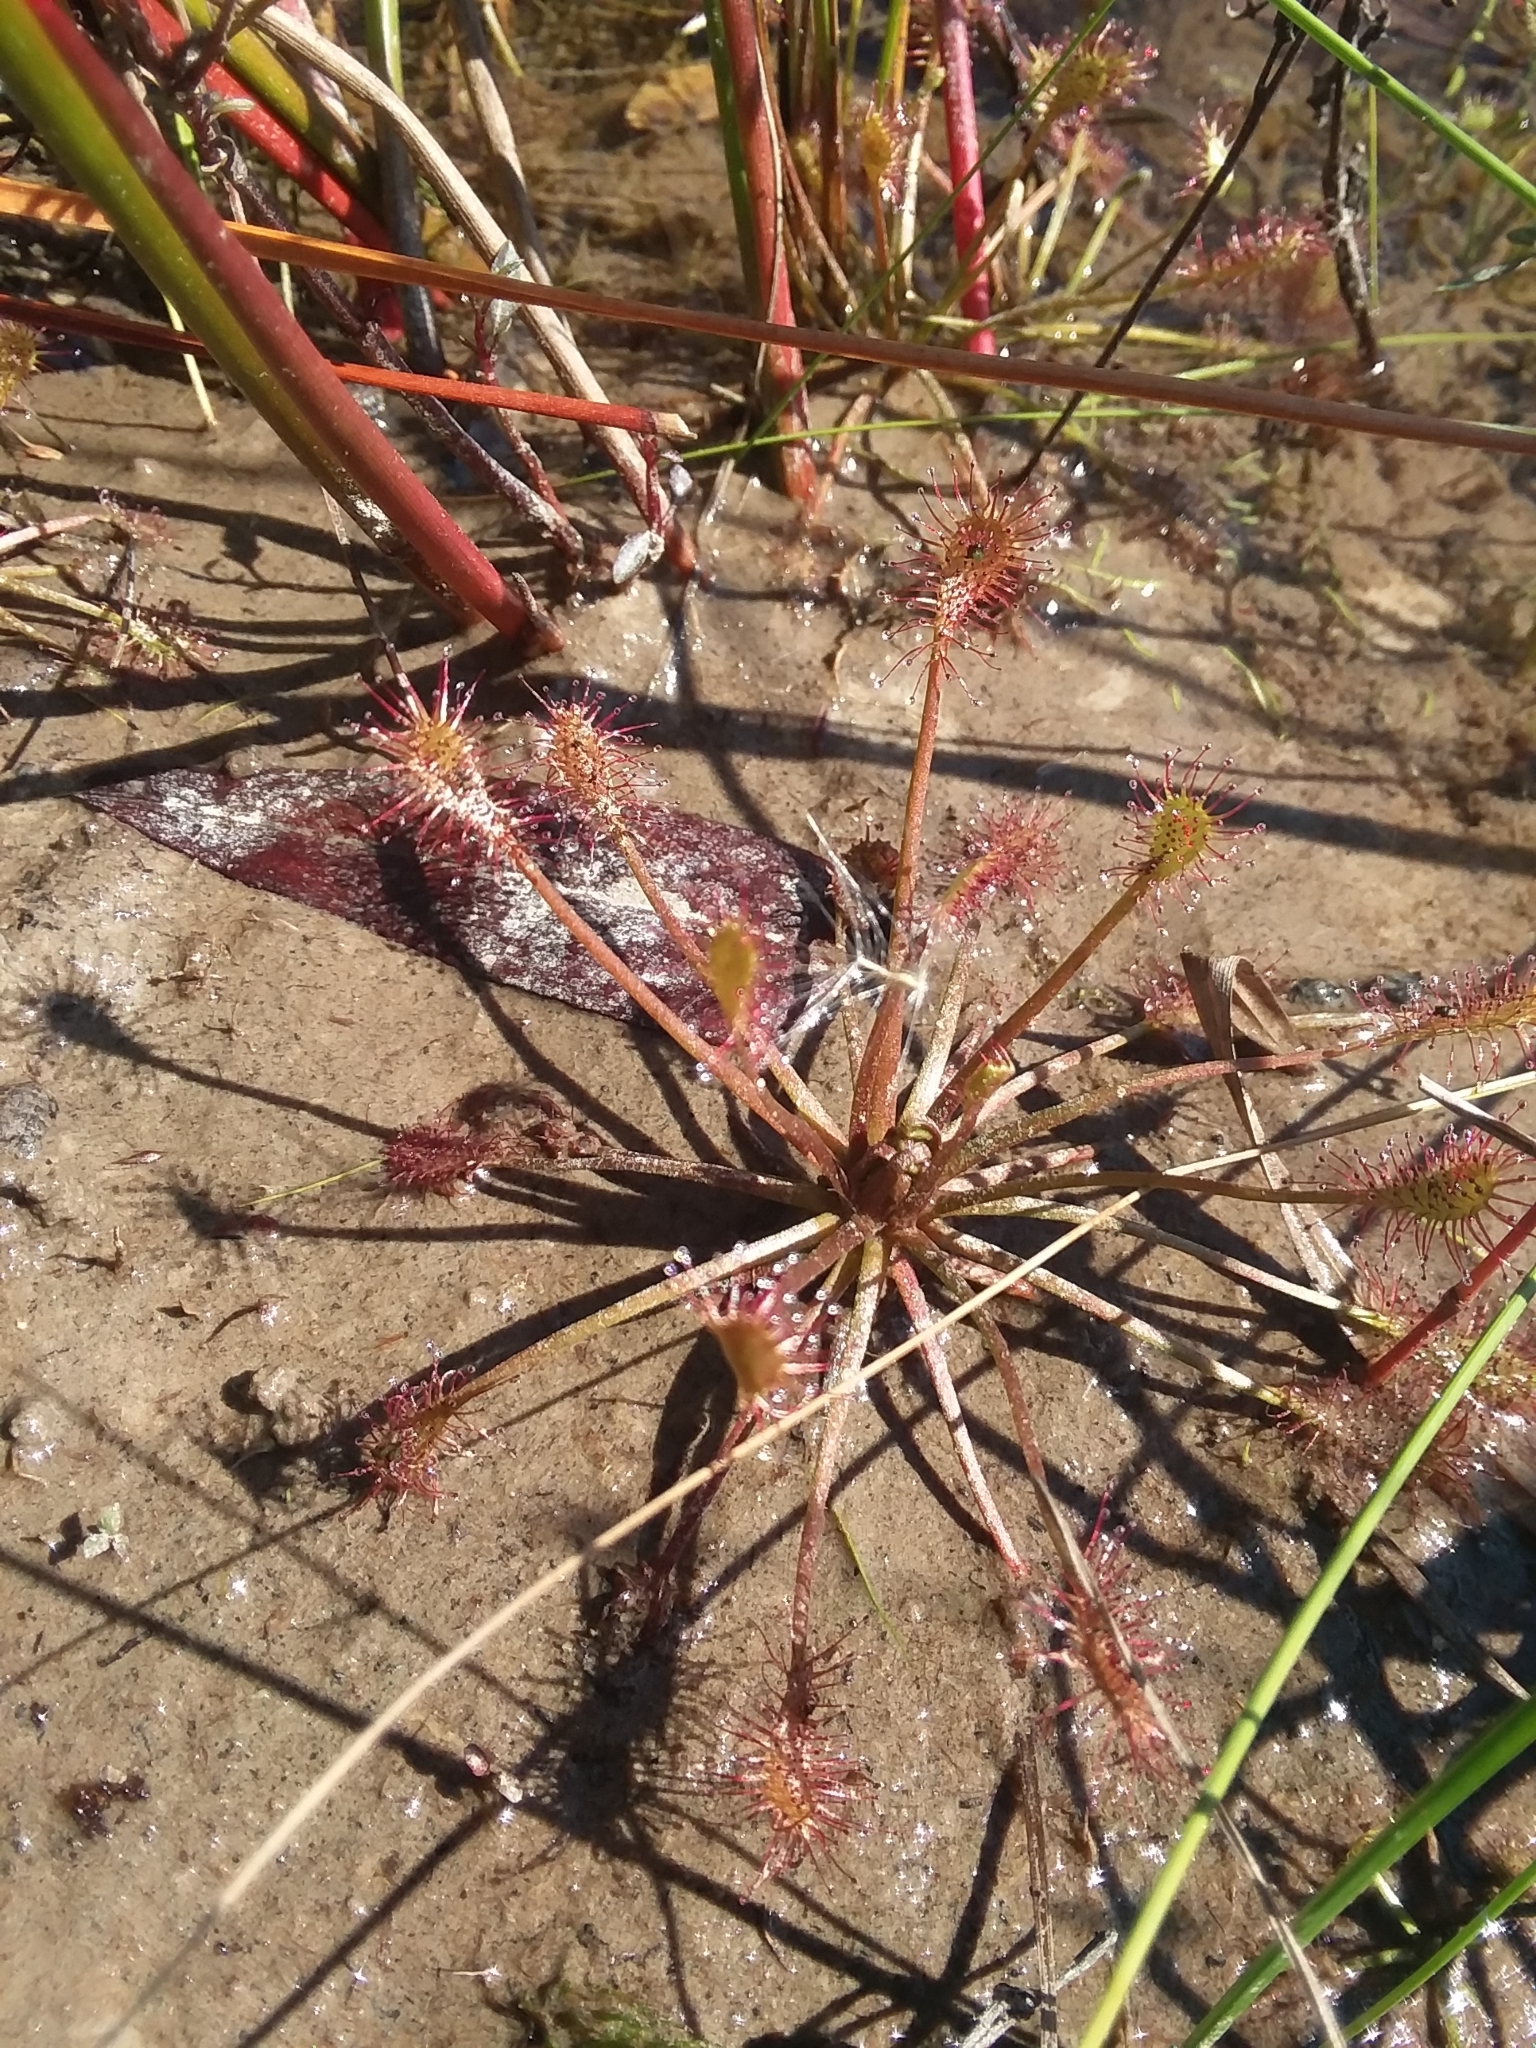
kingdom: Plantae
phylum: Tracheophyta
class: Magnoliopsida
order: Caryophyllales
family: Droseraceae
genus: Drosera
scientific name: Drosera intermedia
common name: Oblong-leaved sundew
